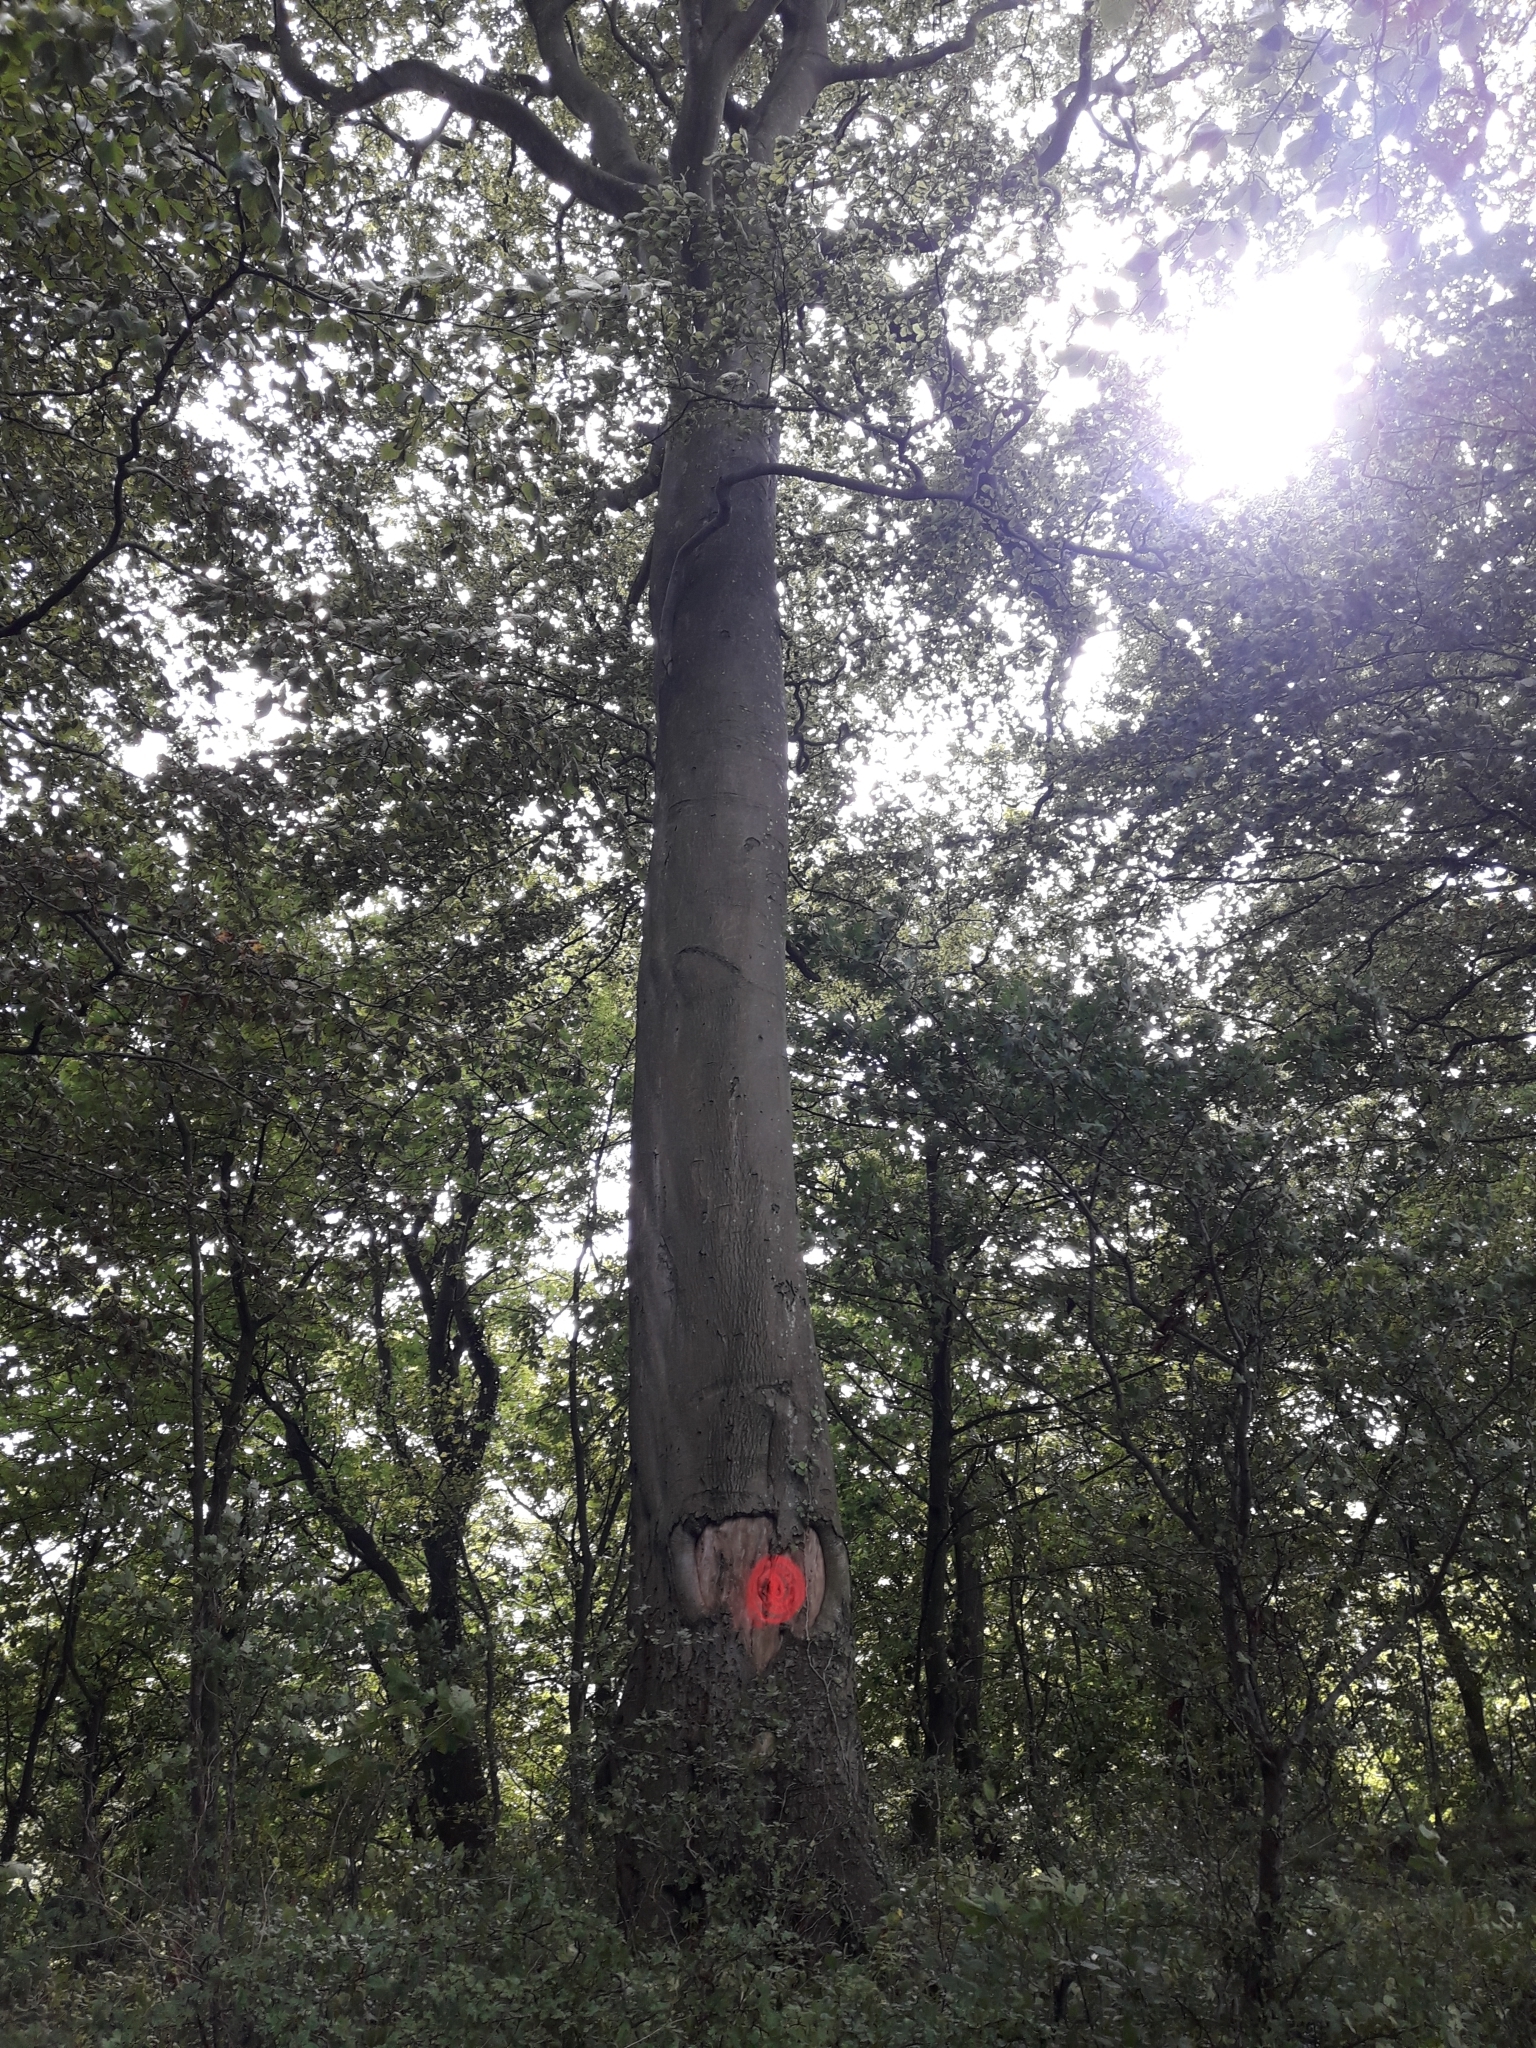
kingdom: Plantae
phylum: Tracheophyta
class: Magnoliopsida
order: Fagales
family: Fagaceae
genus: Fagus
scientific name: Fagus sylvatica
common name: Beech
